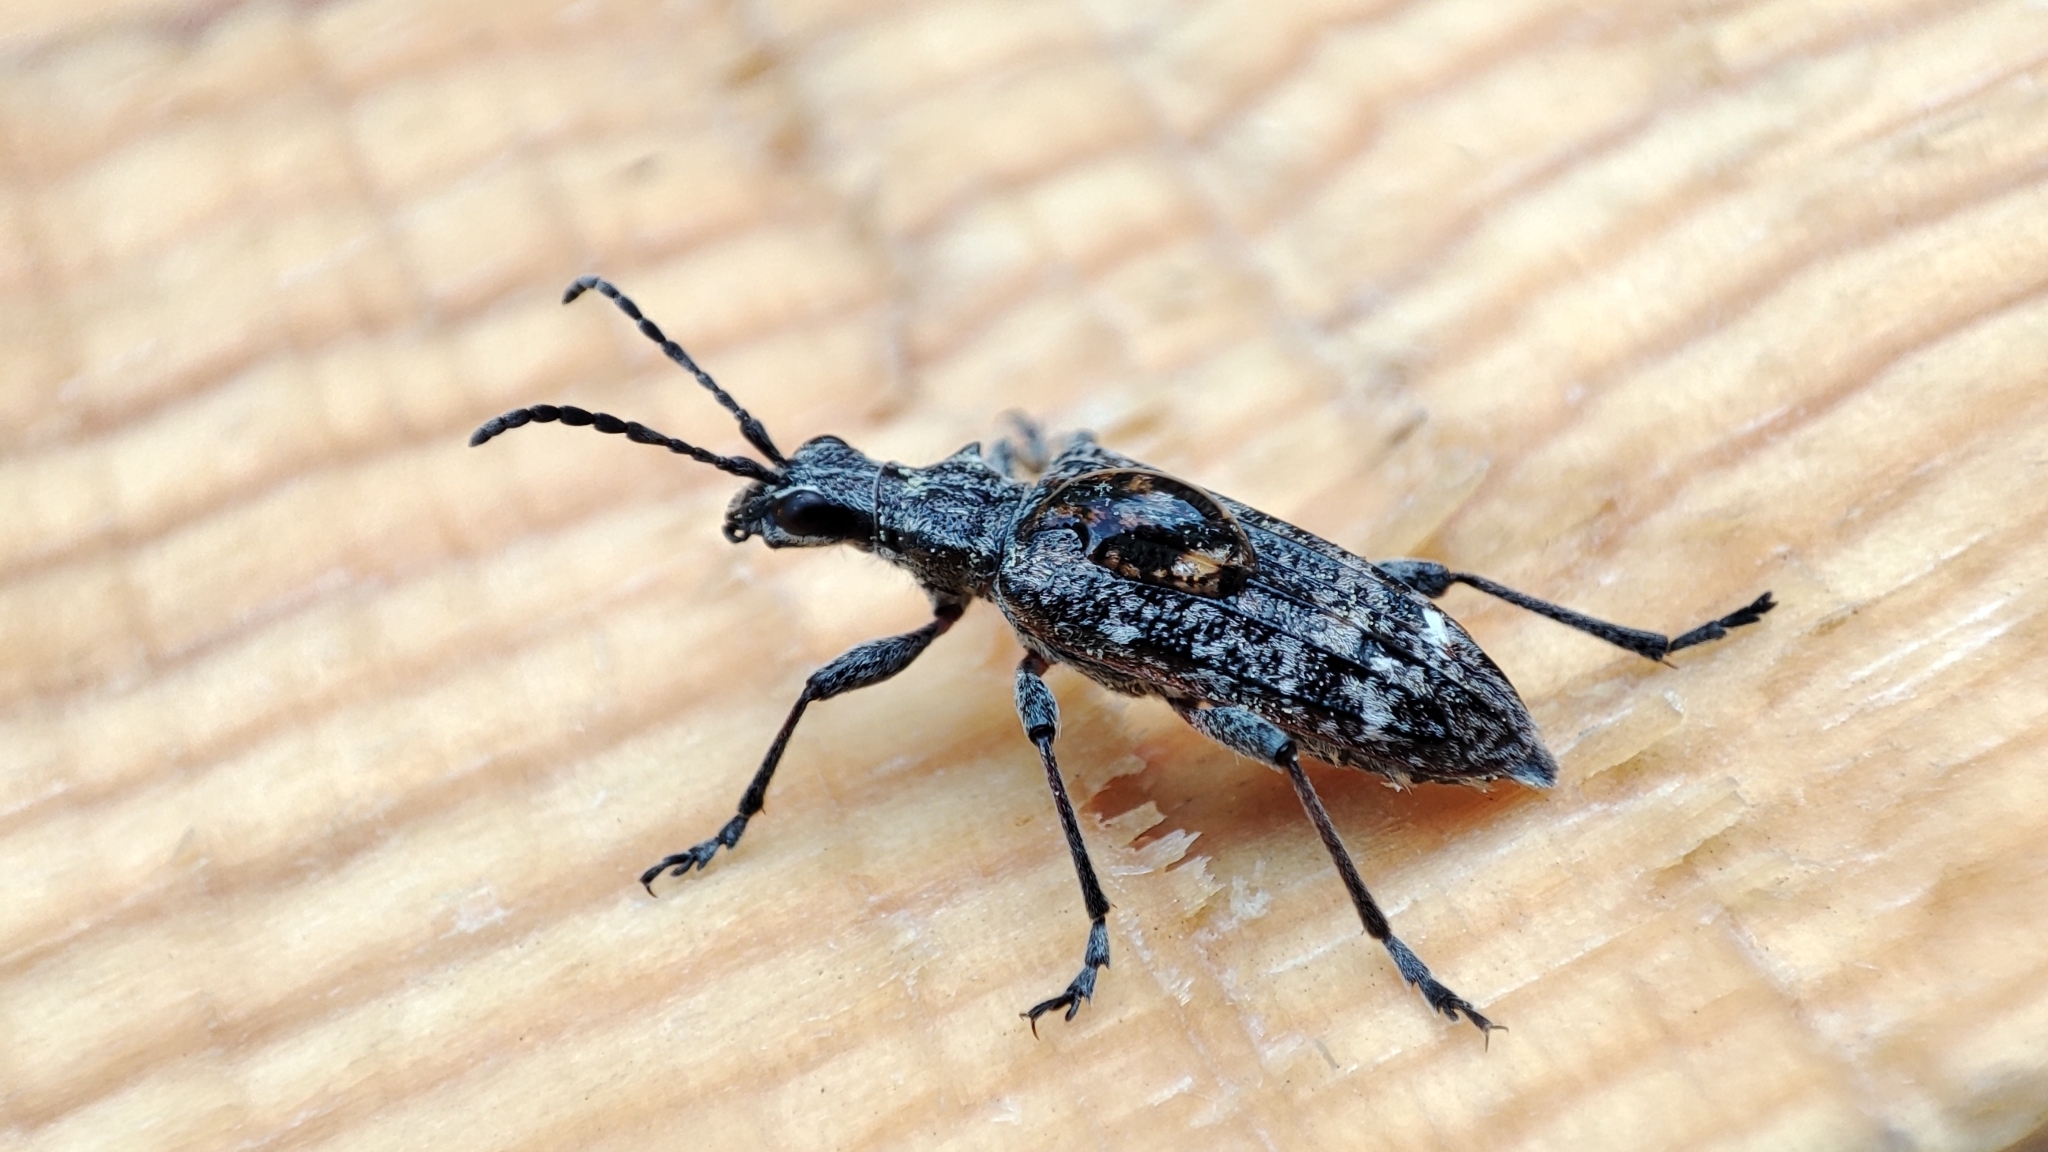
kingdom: Animalia
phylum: Arthropoda
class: Insecta
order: Coleoptera
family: Cerambycidae
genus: Rhagium
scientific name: Rhagium inquisitor
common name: Ribbed pine borer
